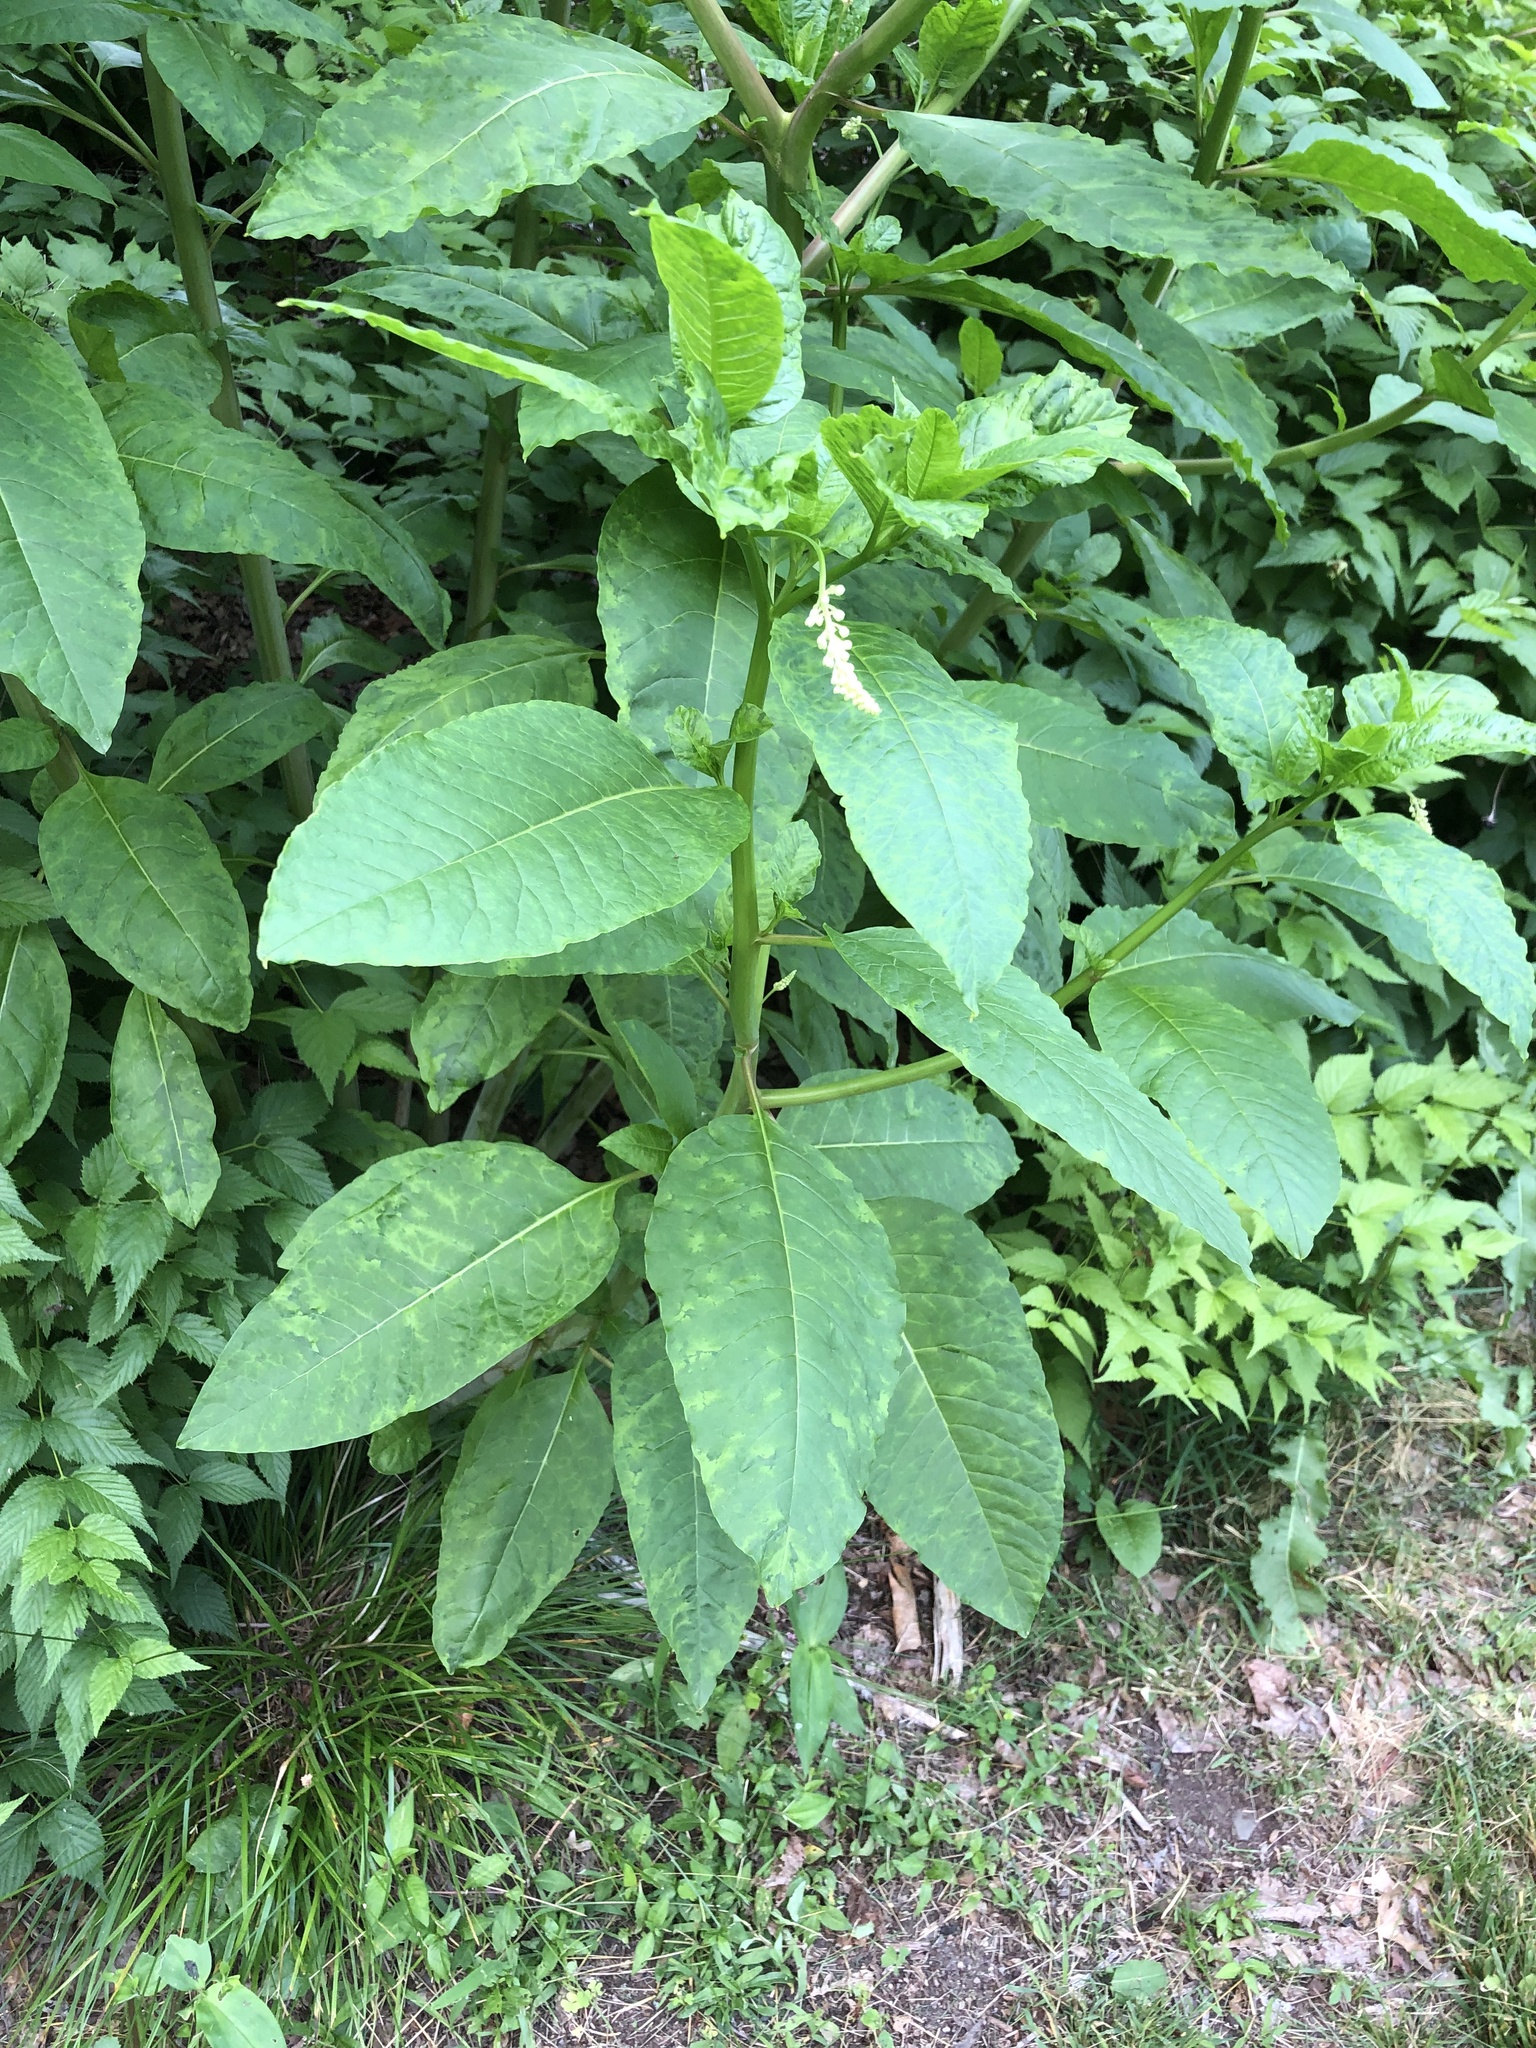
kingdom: Plantae
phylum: Tracheophyta
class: Magnoliopsida
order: Caryophyllales
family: Phytolaccaceae
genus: Phytolacca
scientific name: Phytolacca americana
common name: American pokeweed
